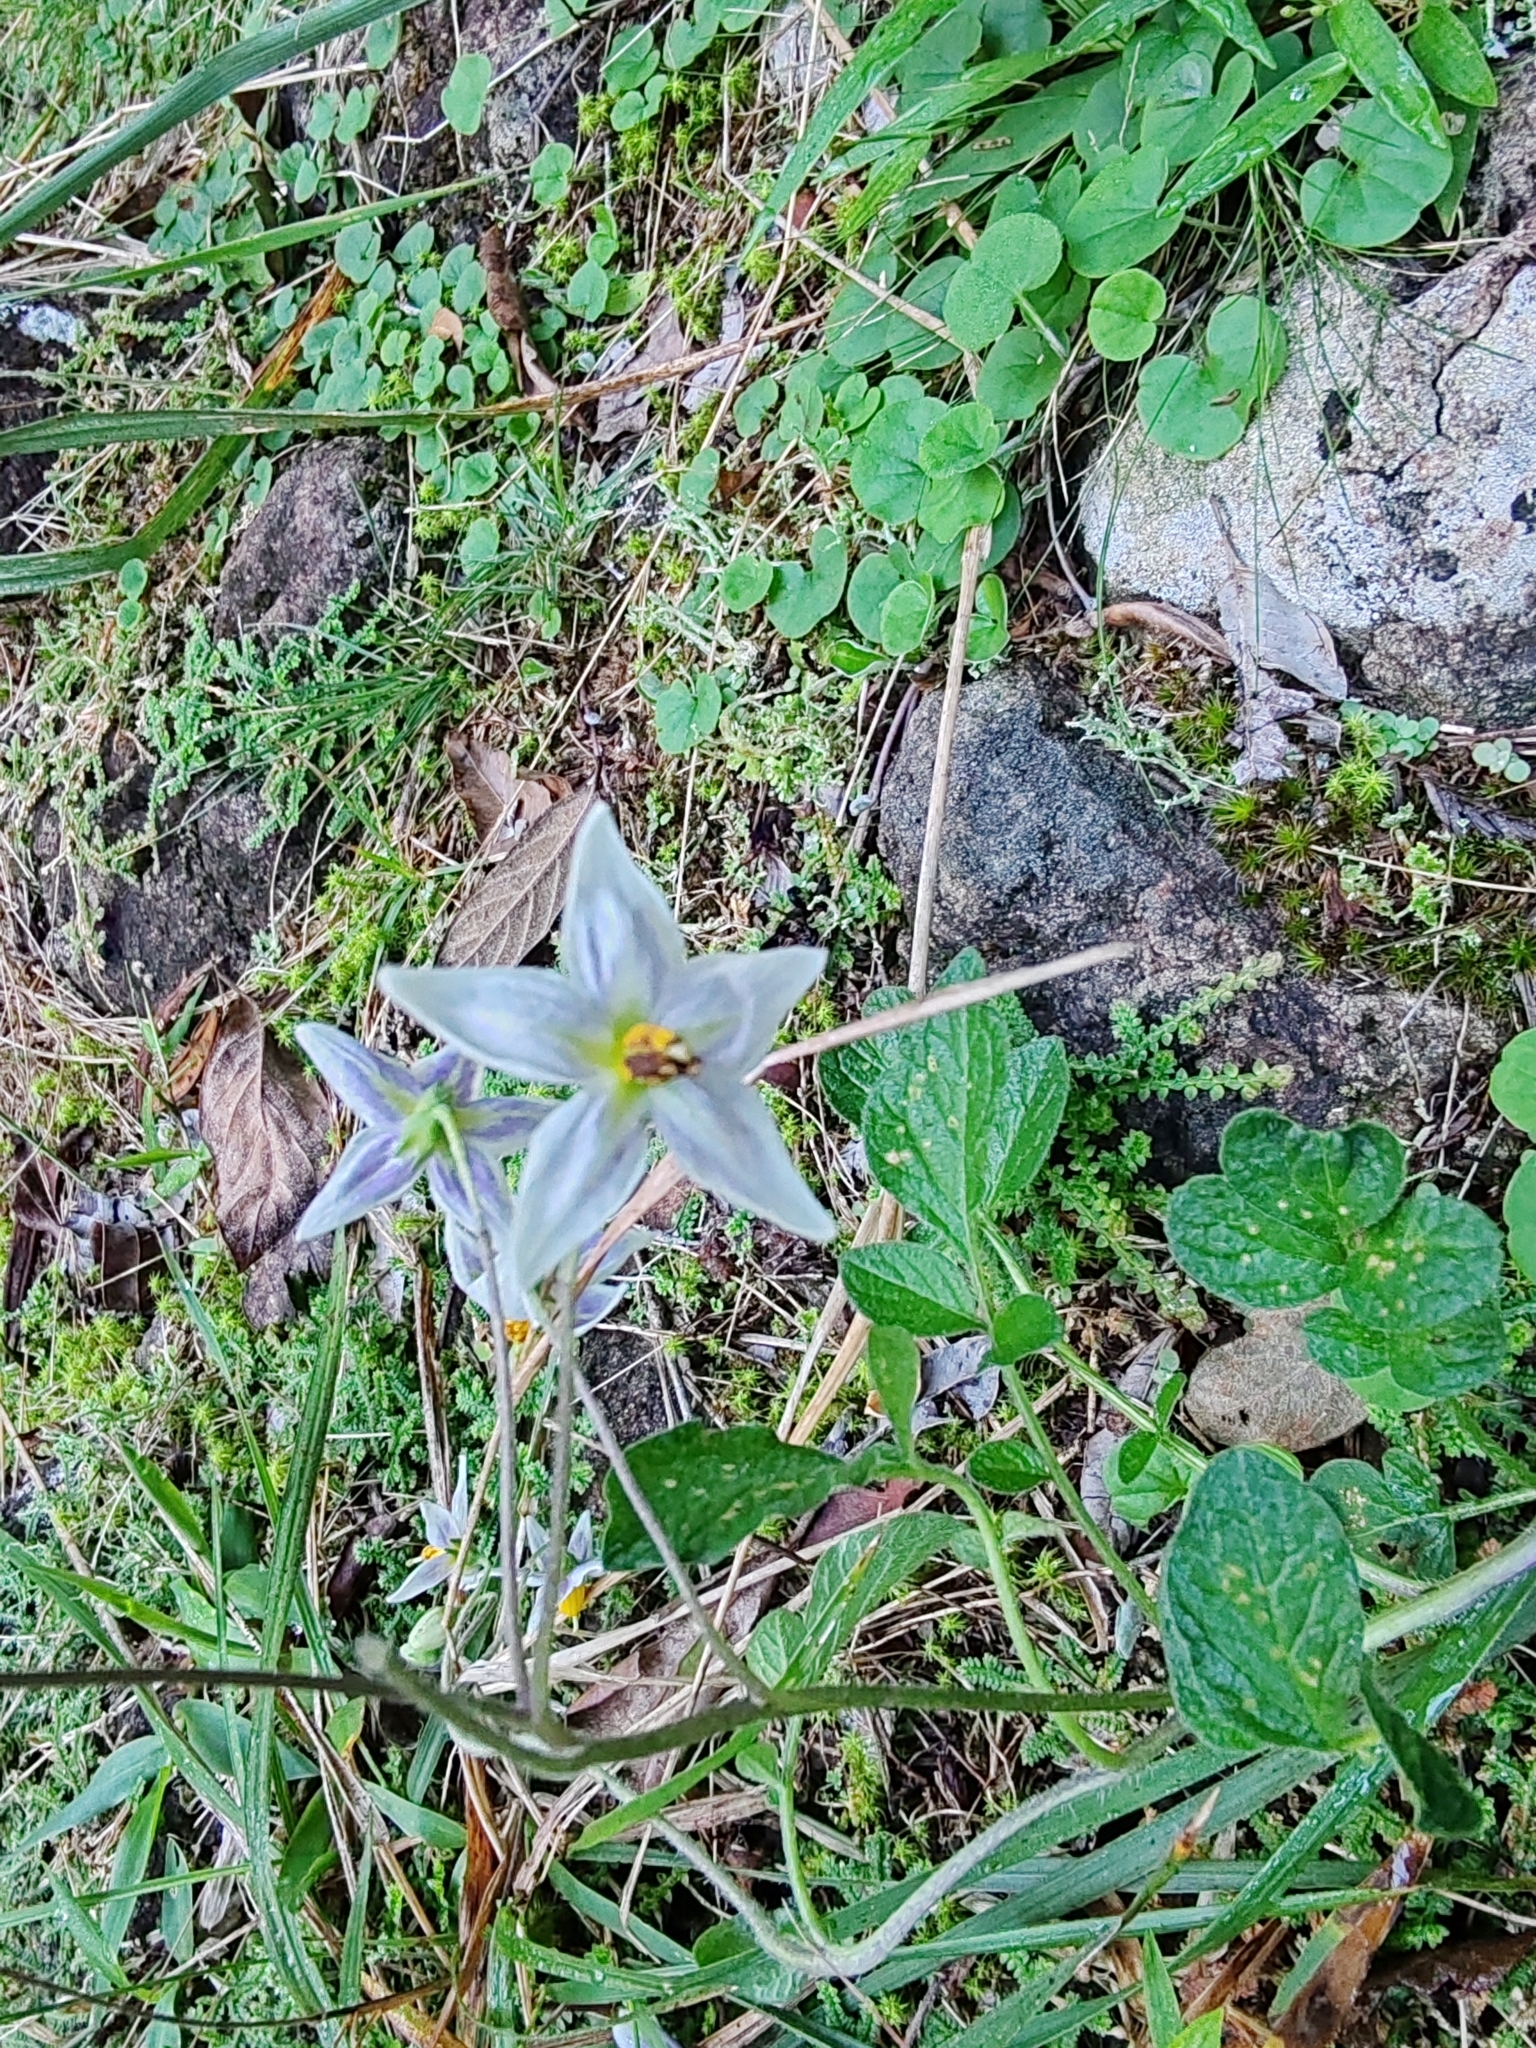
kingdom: Plantae
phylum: Tracheophyta
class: Magnoliopsida
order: Solanales
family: Solanaceae
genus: Solanum
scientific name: Solanum commersonii
